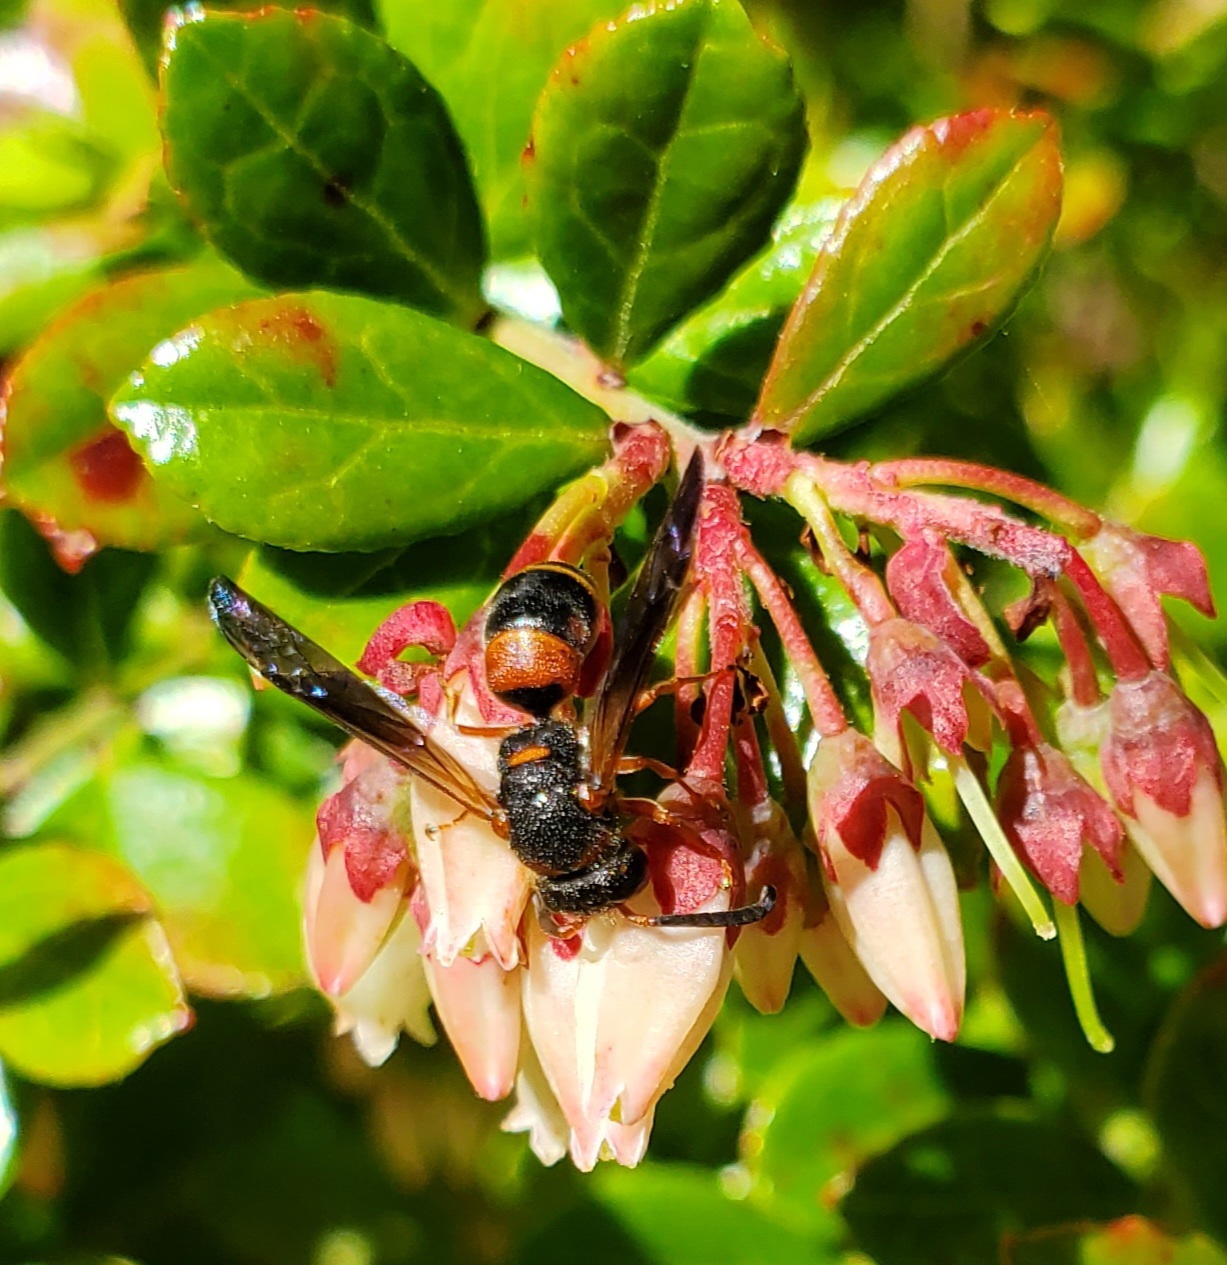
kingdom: Animalia
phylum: Arthropoda
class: Insecta
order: Hymenoptera
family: Eumenidae
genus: Euodynerus
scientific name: Euodynerus
